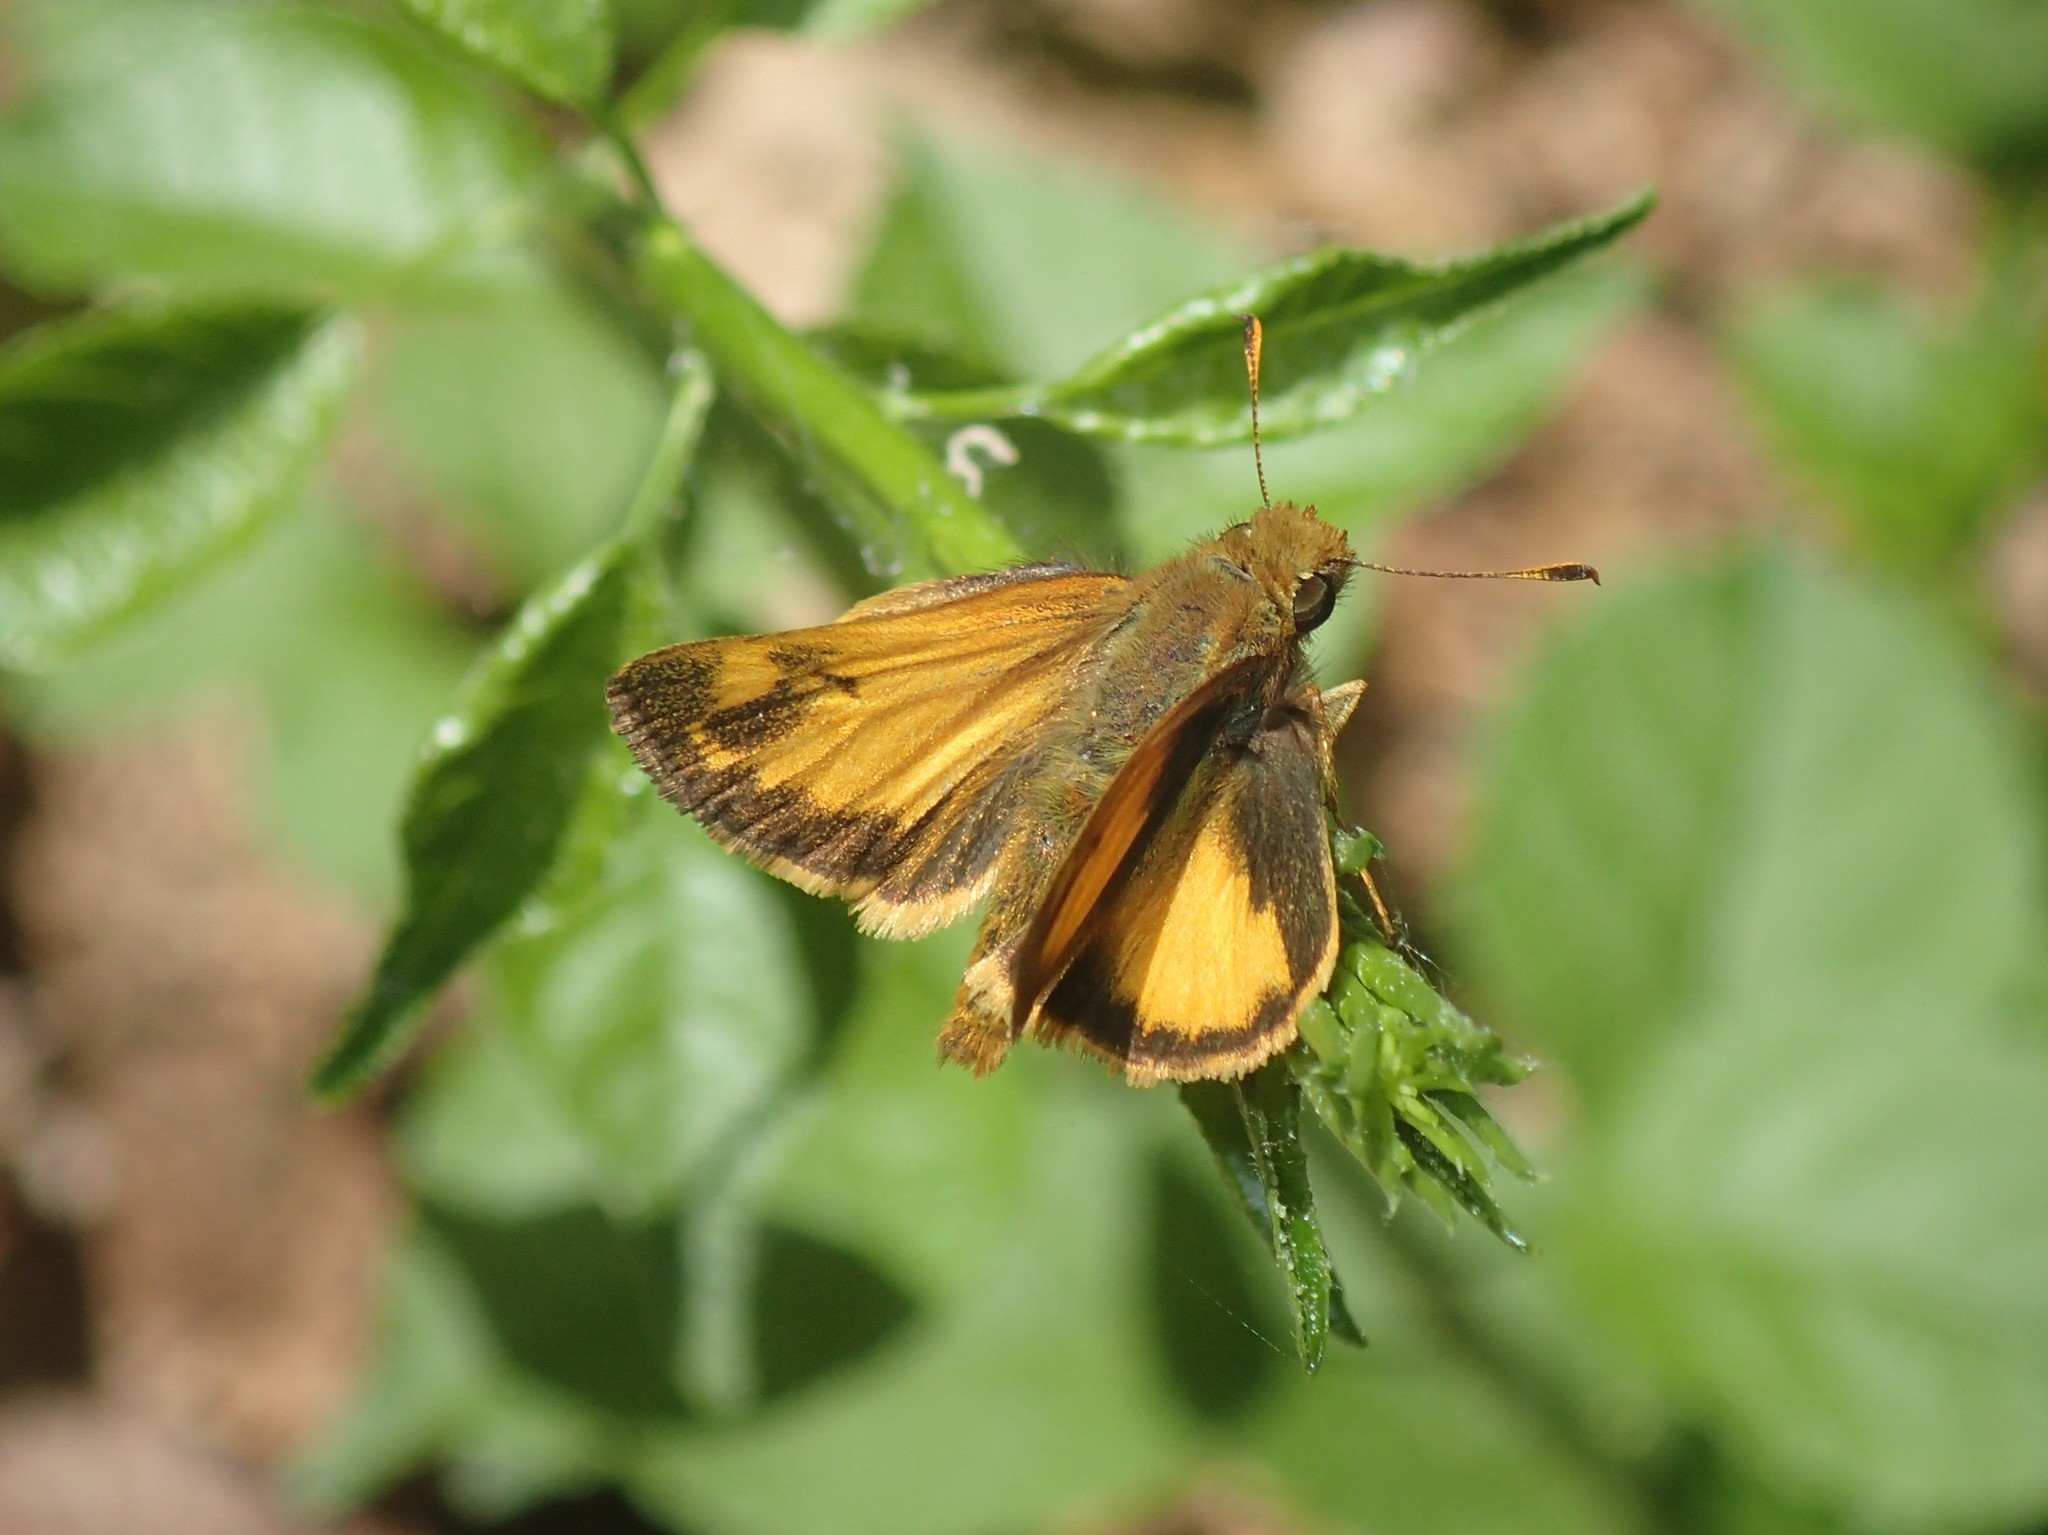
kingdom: Animalia
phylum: Arthropoda
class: Insecta
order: Lepidoptera
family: Hesperiidae
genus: Lon
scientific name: Lon zabulon
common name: Zabulon skipper
